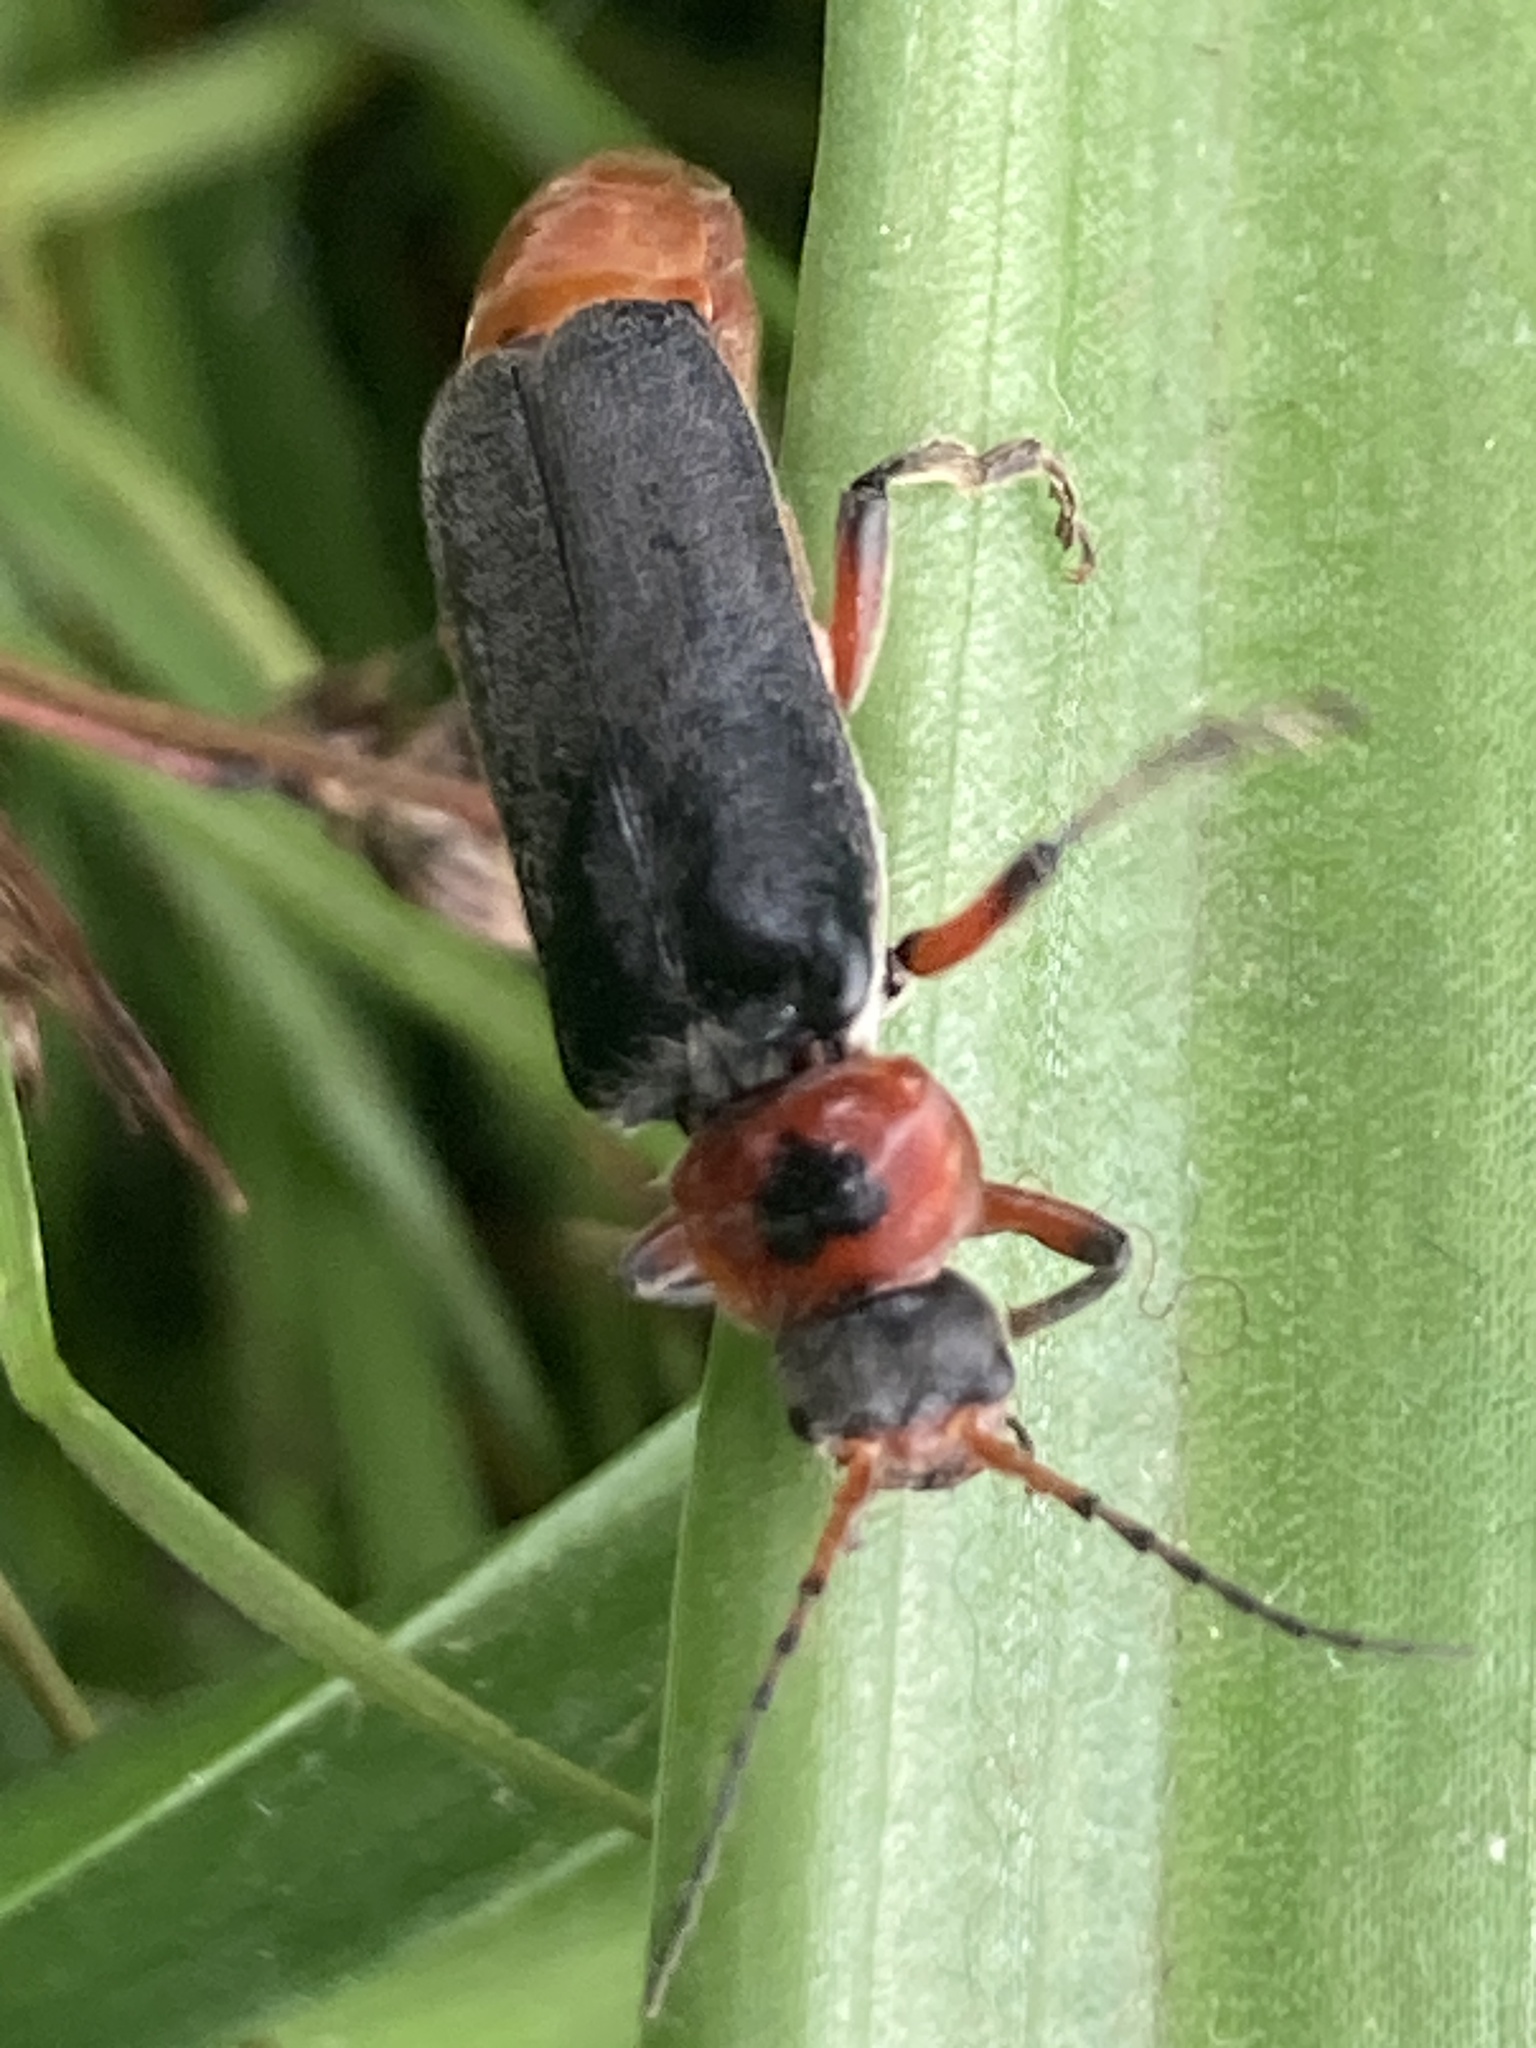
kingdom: Animalia
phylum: Arthropoda
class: Insecta
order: Coleoptera
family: Cantharidae
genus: Cantharis
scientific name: Cantharis rustica
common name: Soldier beetle
